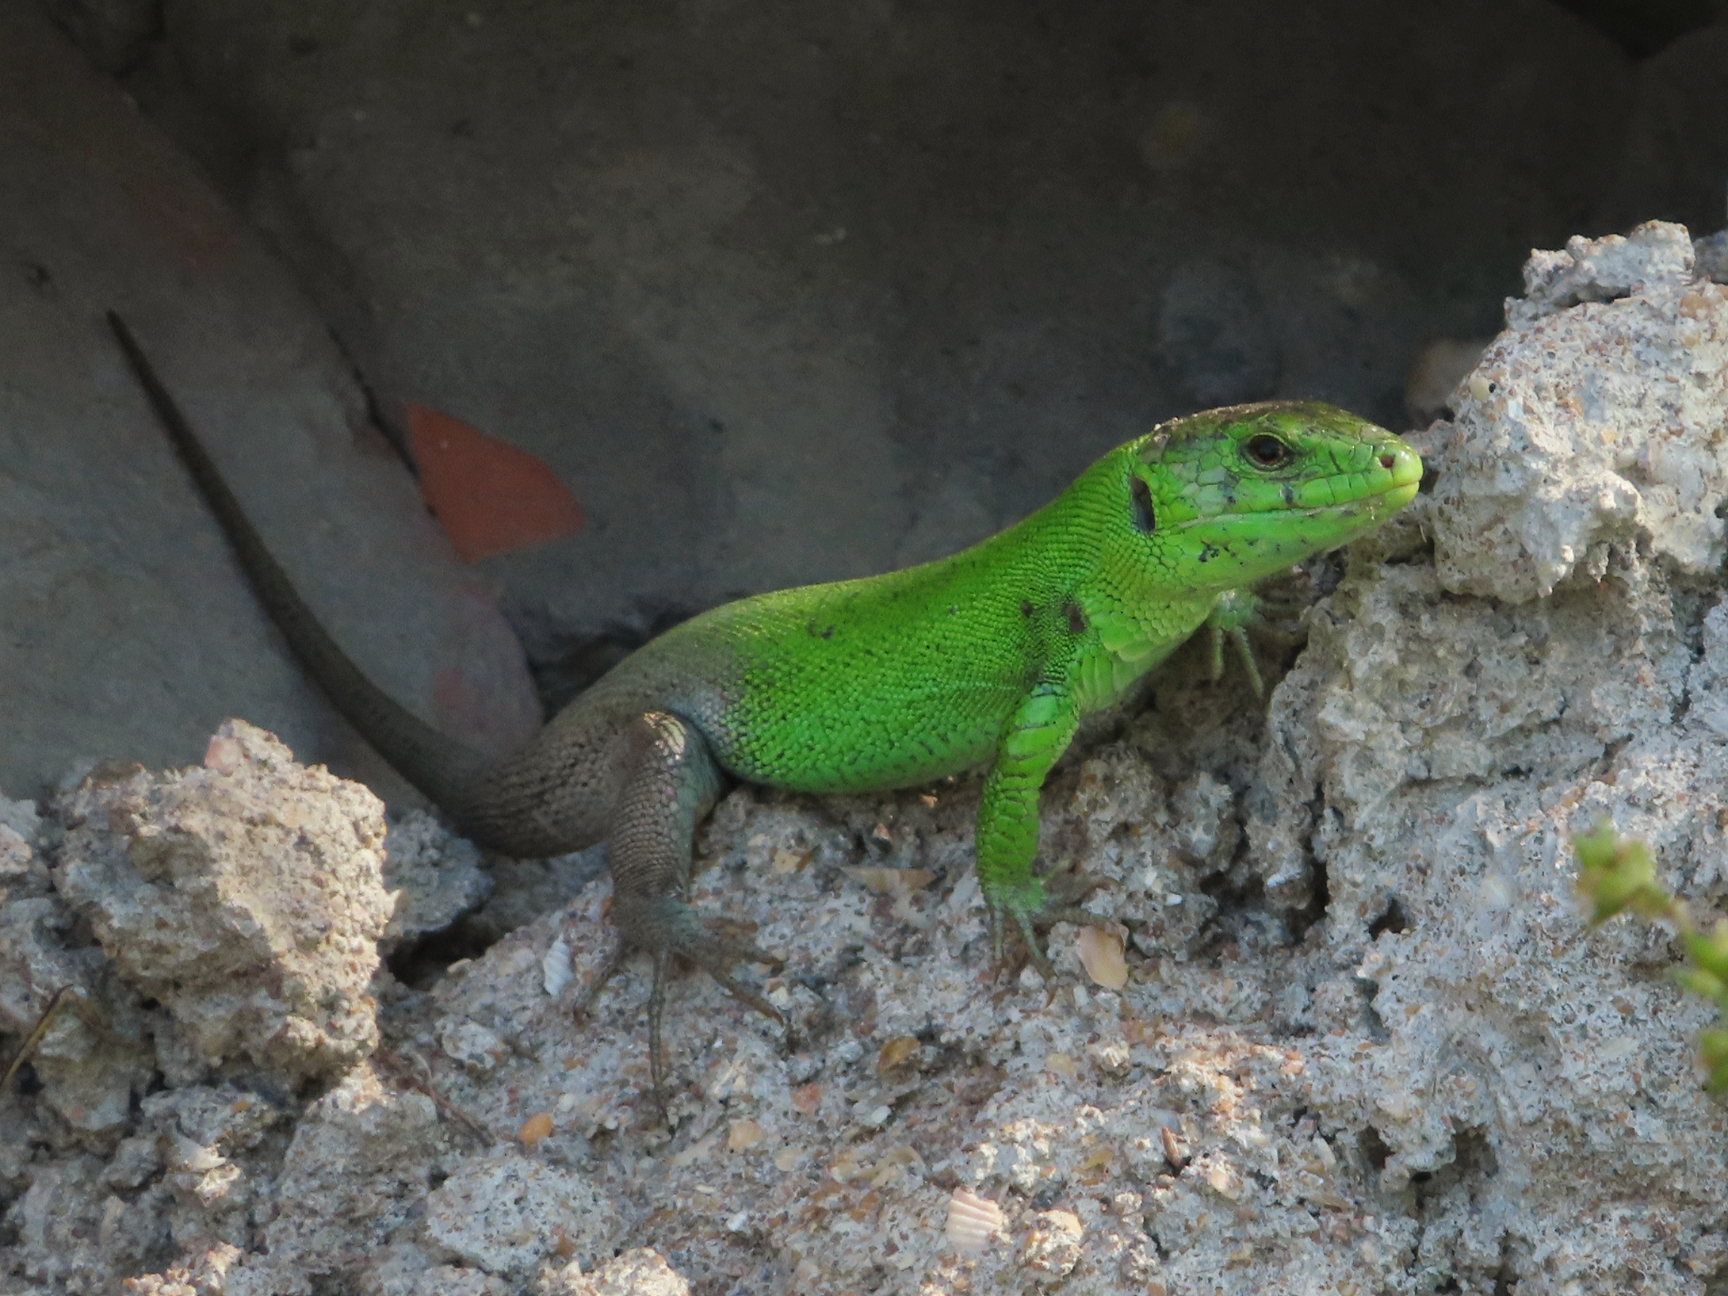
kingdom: Animalia
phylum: Chordata
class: Squamata
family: Lacertidae
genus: Lacerta
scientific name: Lacerta strigata
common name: Caspian green lizard
